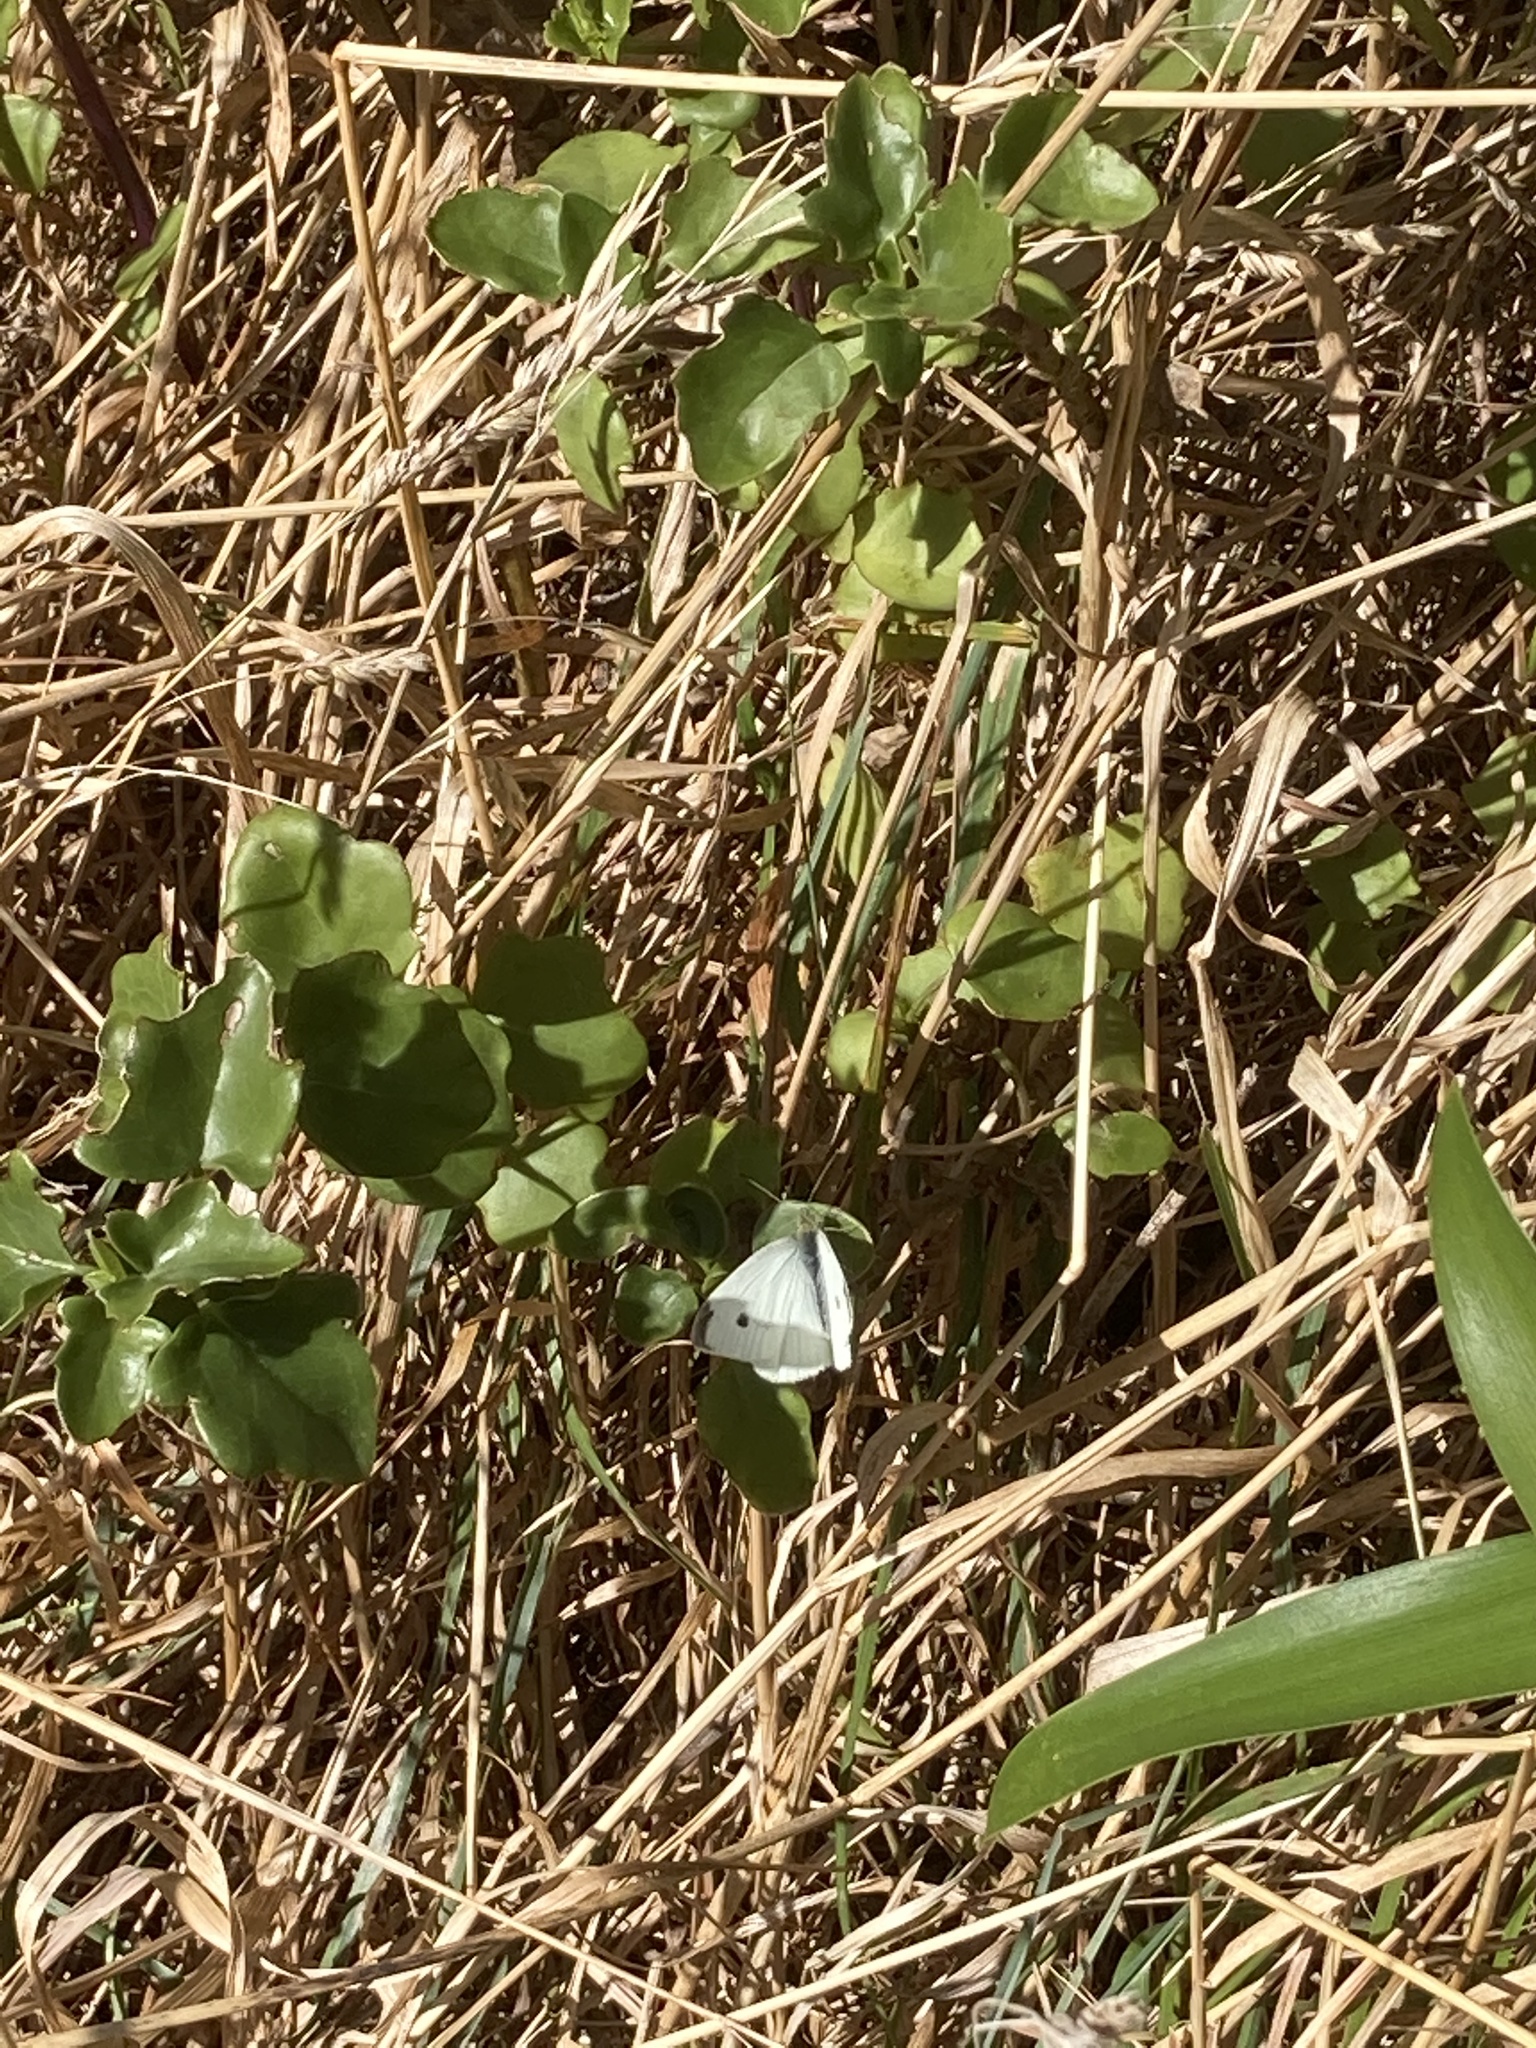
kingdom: Animalia
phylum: Arthropoda
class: Insecta
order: Lepidoptera
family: Pieridae
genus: Pieris
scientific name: Pieris rapae
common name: Small white
